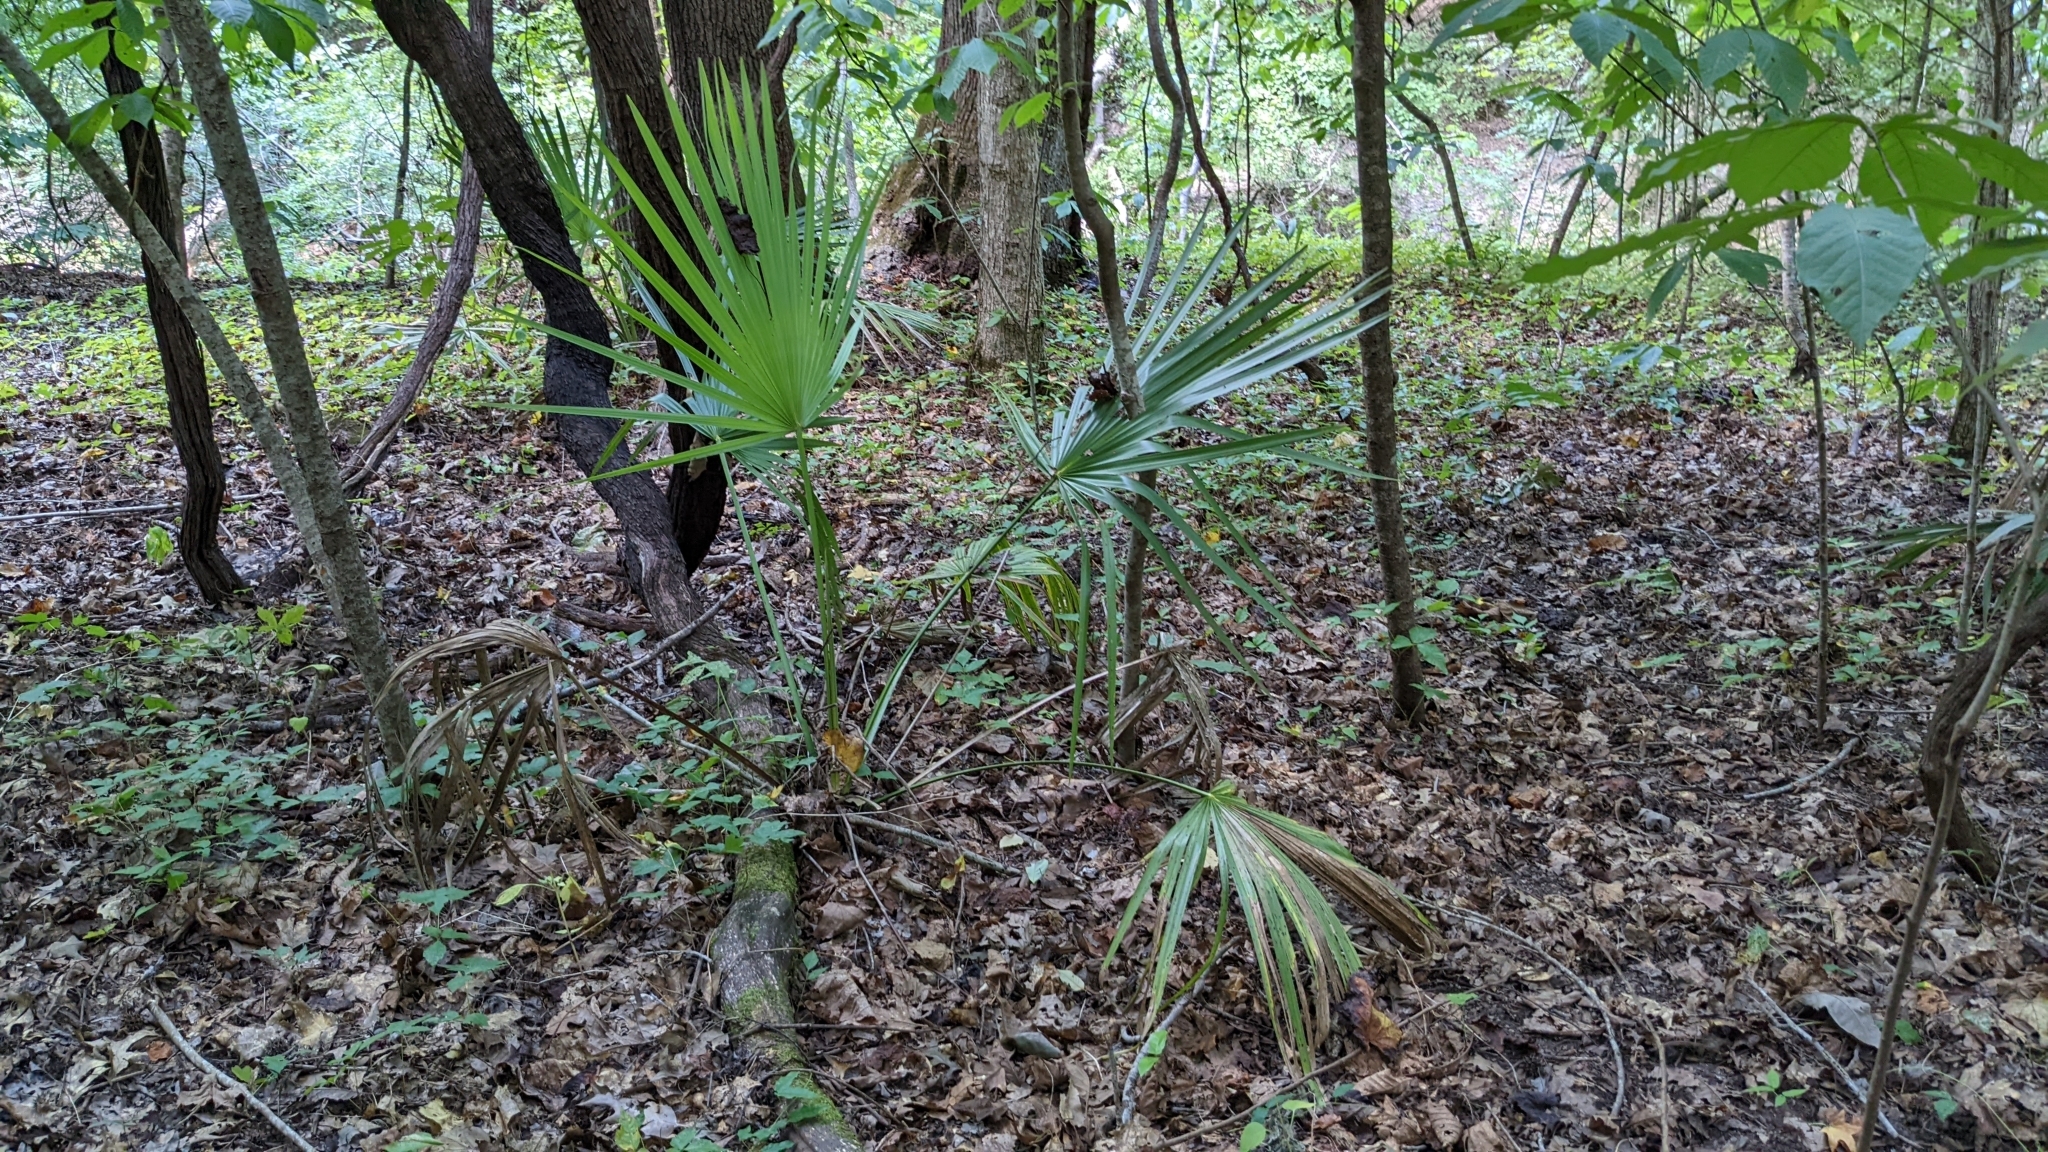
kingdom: Plantae
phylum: Tracheophyta
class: Liliopsida
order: Arecales
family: Arecaceae
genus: Sabal
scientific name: Sabal minor
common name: Dwarf palmetto
